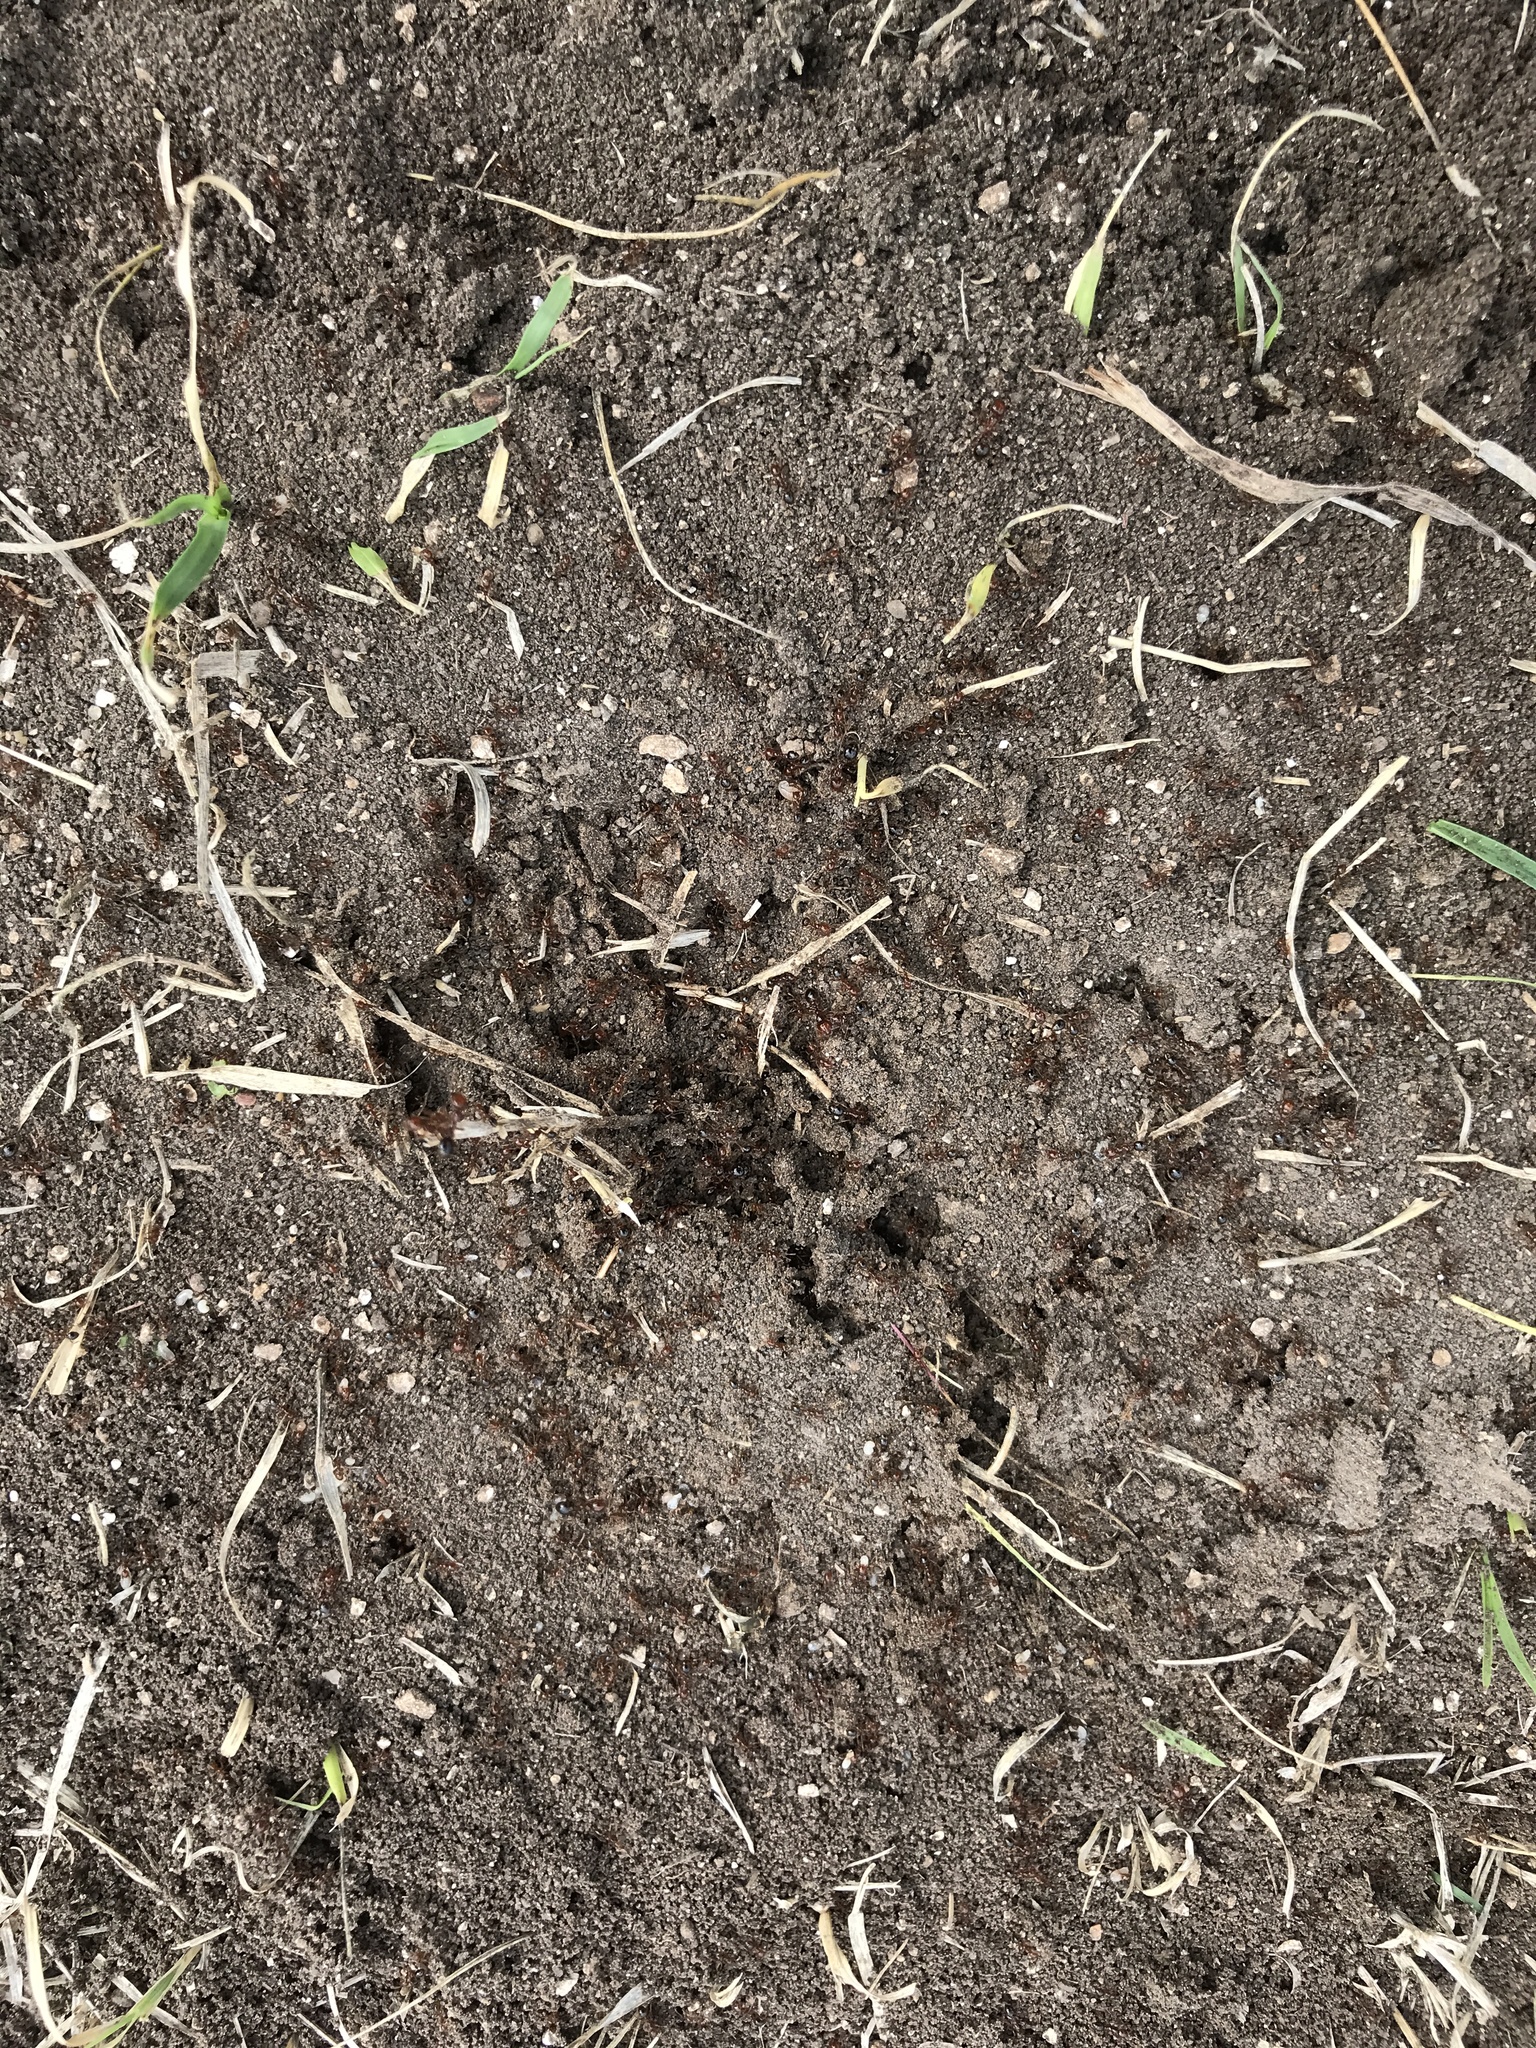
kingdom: Animalia
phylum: Arthropoda
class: Insecta
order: Hymenoptera
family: Formicidae
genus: Solenopsis
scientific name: Solenopsis invicta
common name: Red imported fire ant
